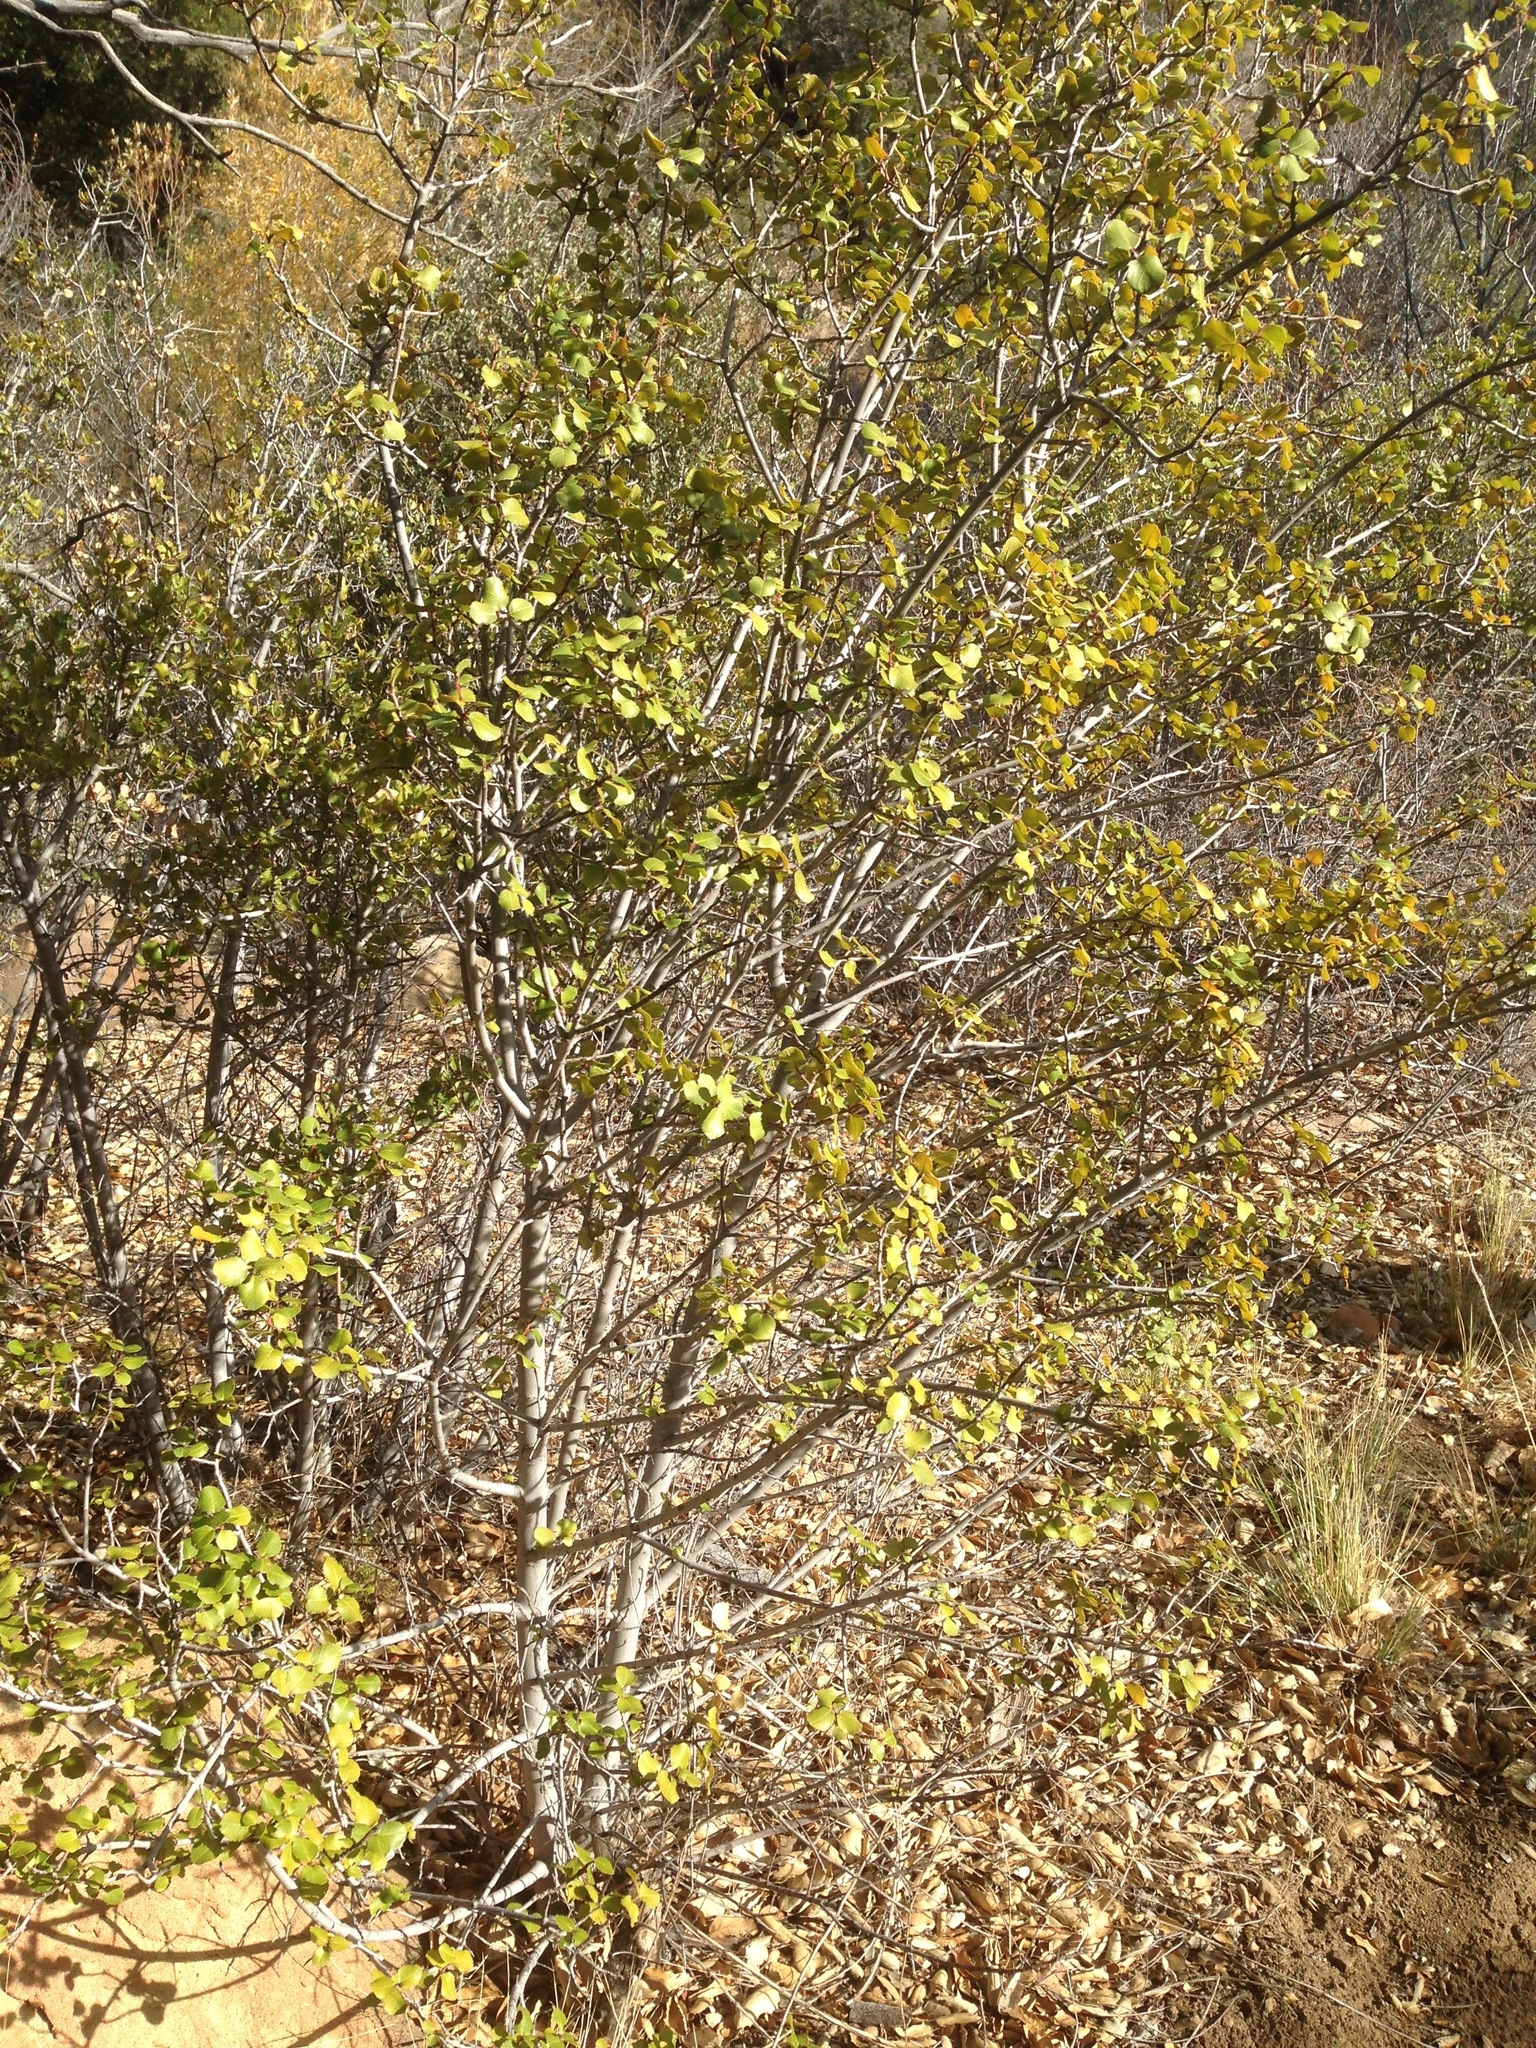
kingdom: Plantae
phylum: Tracheophyta
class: Magnoliopsida
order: Rosales
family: Rhamnaceae
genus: Endotropis
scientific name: Endotropis crocea
